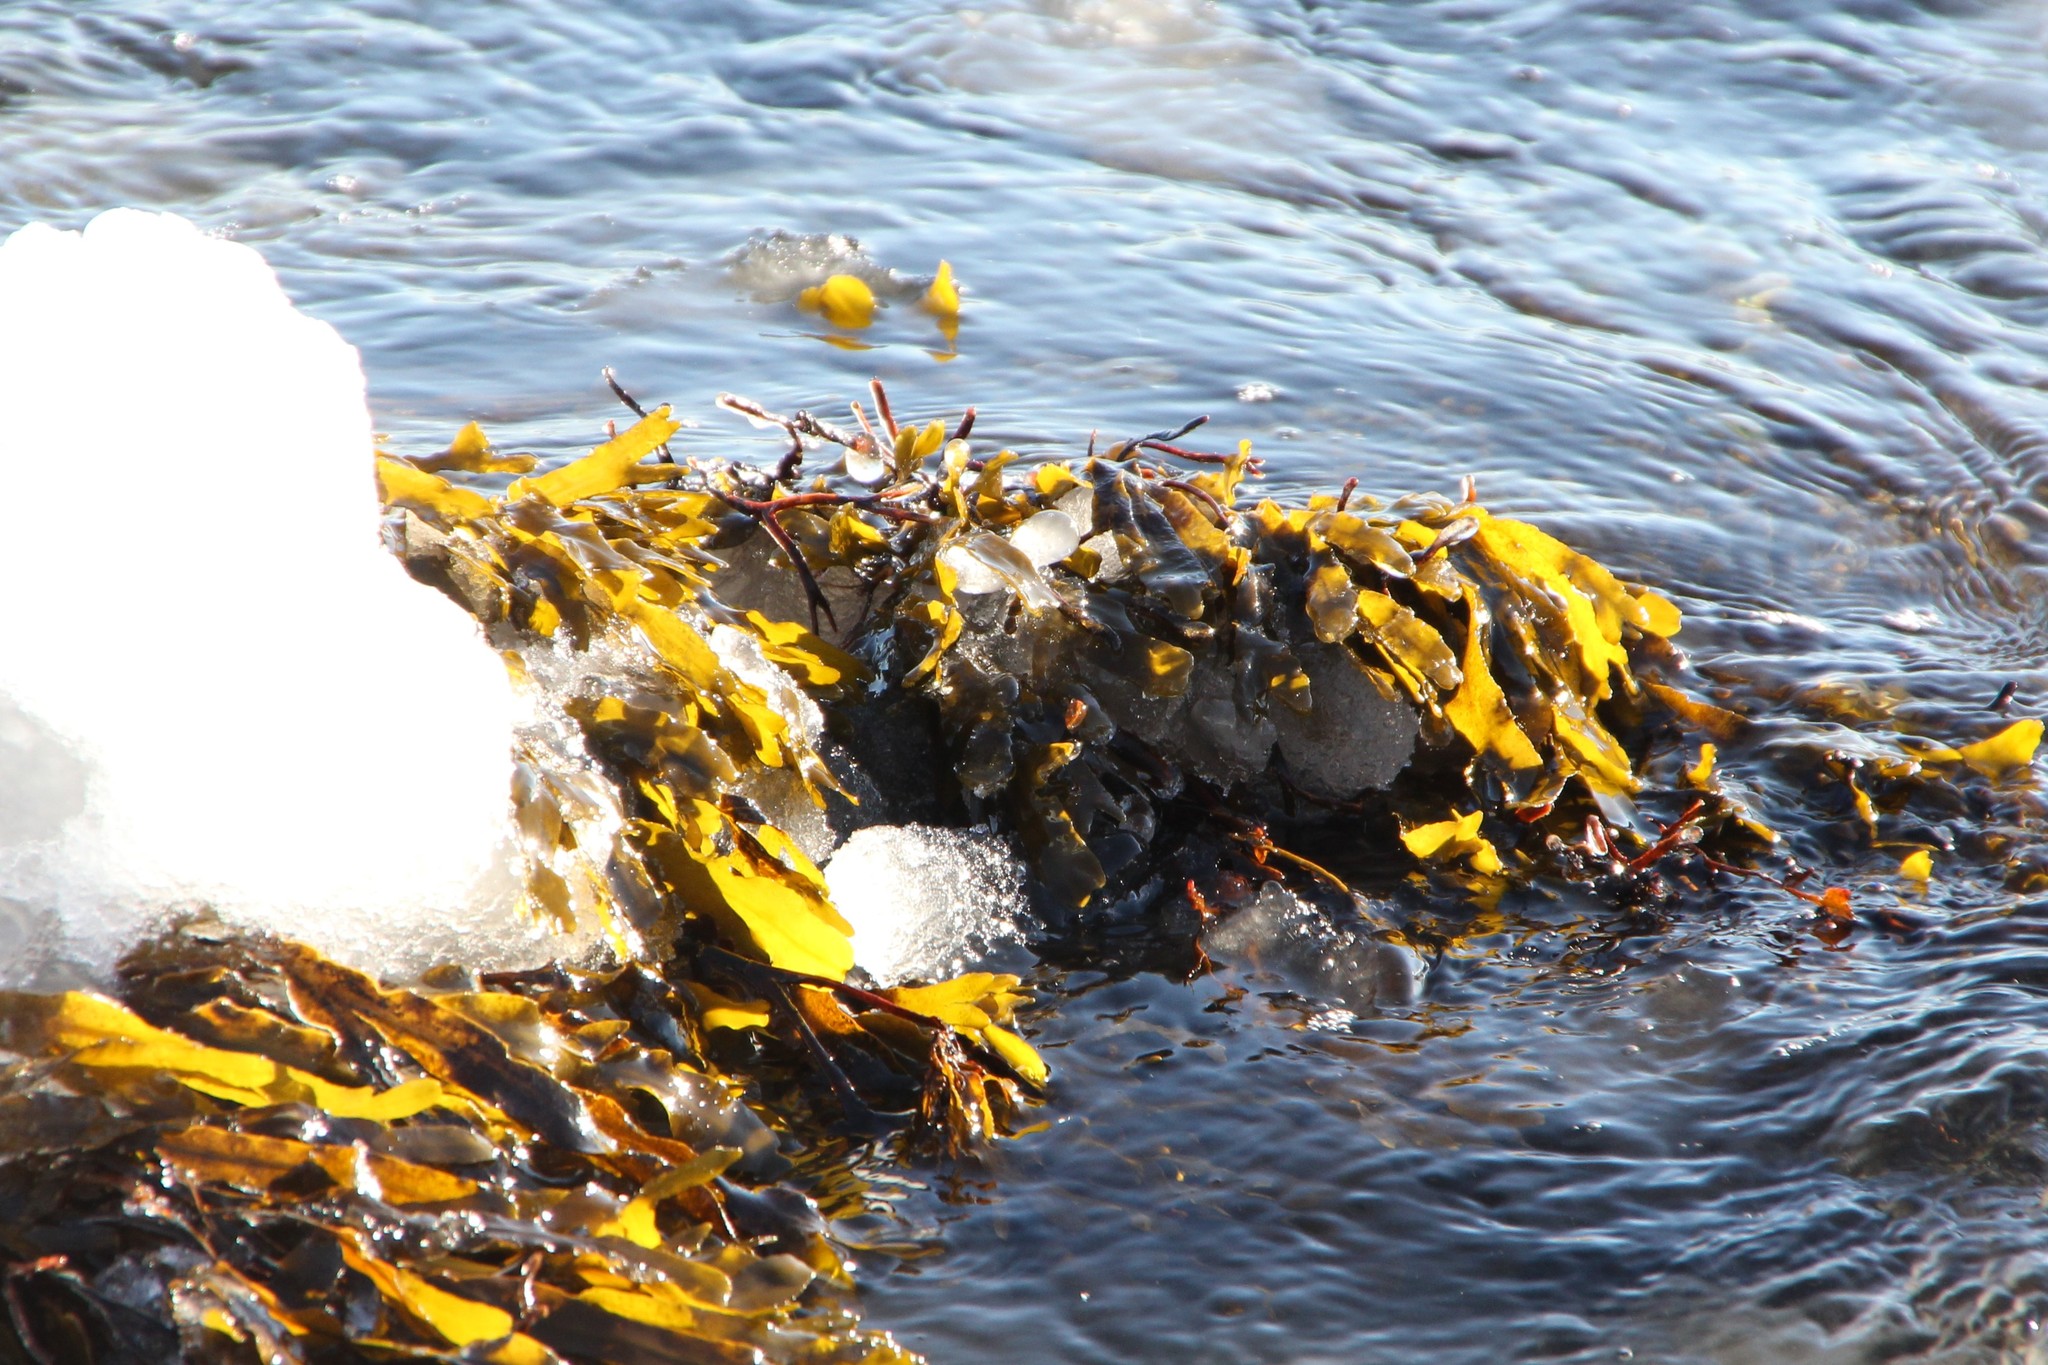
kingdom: Chromista
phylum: Ochrophyta
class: Phaeophyceae
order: Fucales
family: Fucaceae
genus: Fucus
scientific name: Fucus vesiculosus
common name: Bladder wrack
